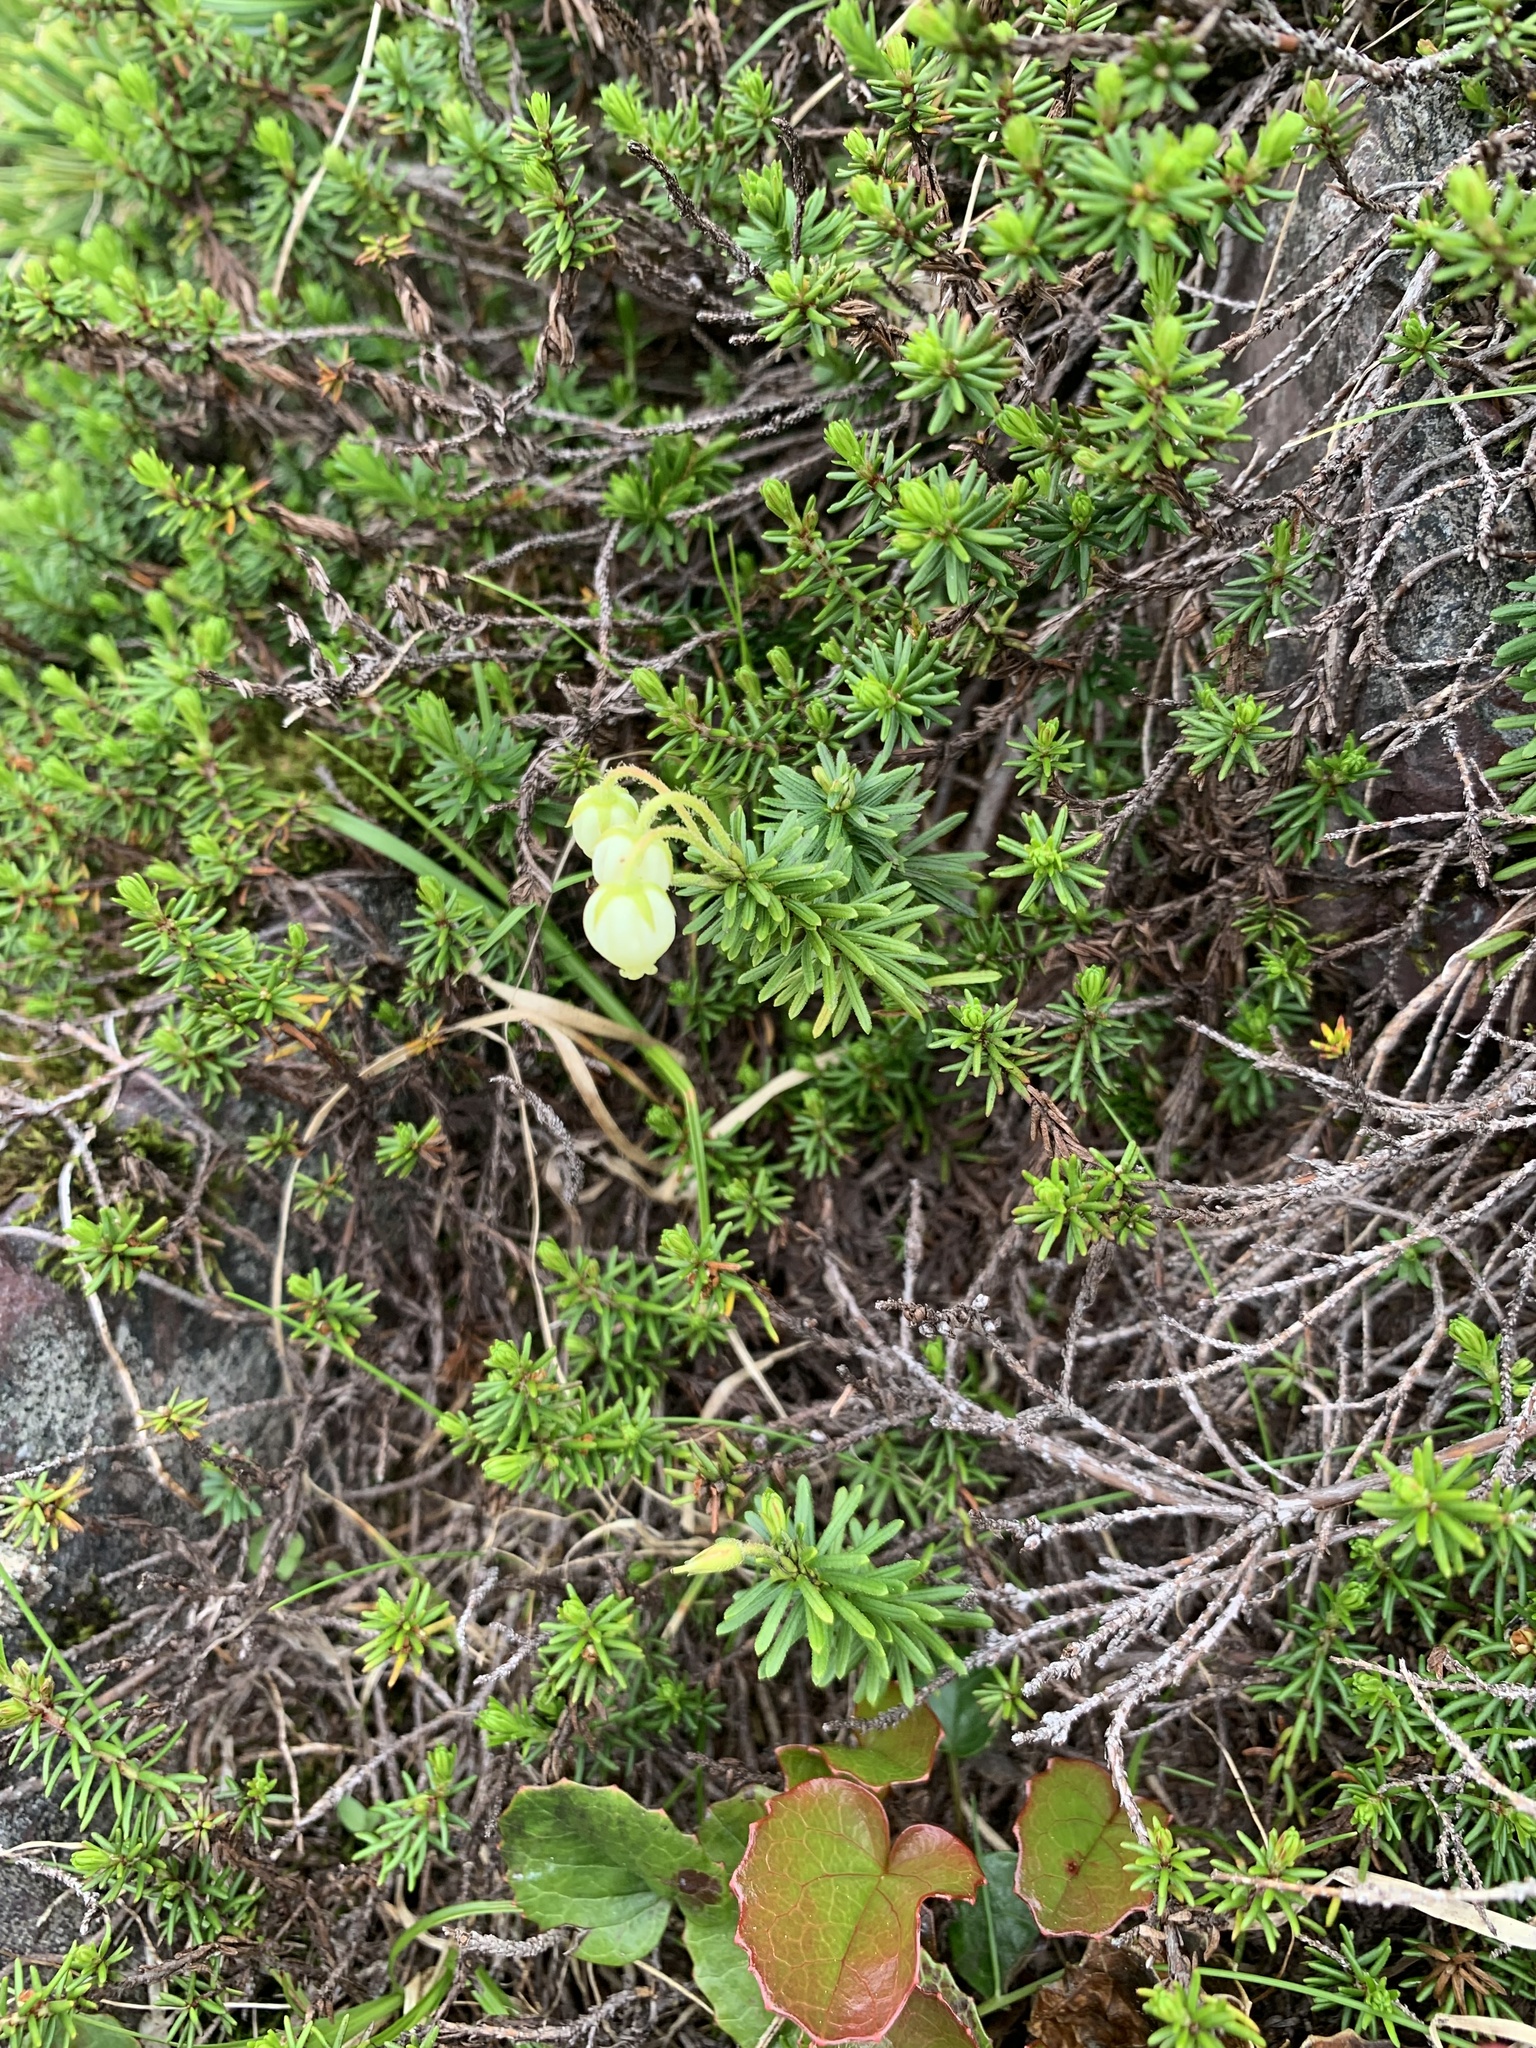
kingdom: Plantae
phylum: Tracheophyta
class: Magnoliopsida
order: Ericales
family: Ericaceae
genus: Phyllodoce
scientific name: Phyllodoce aleutica
